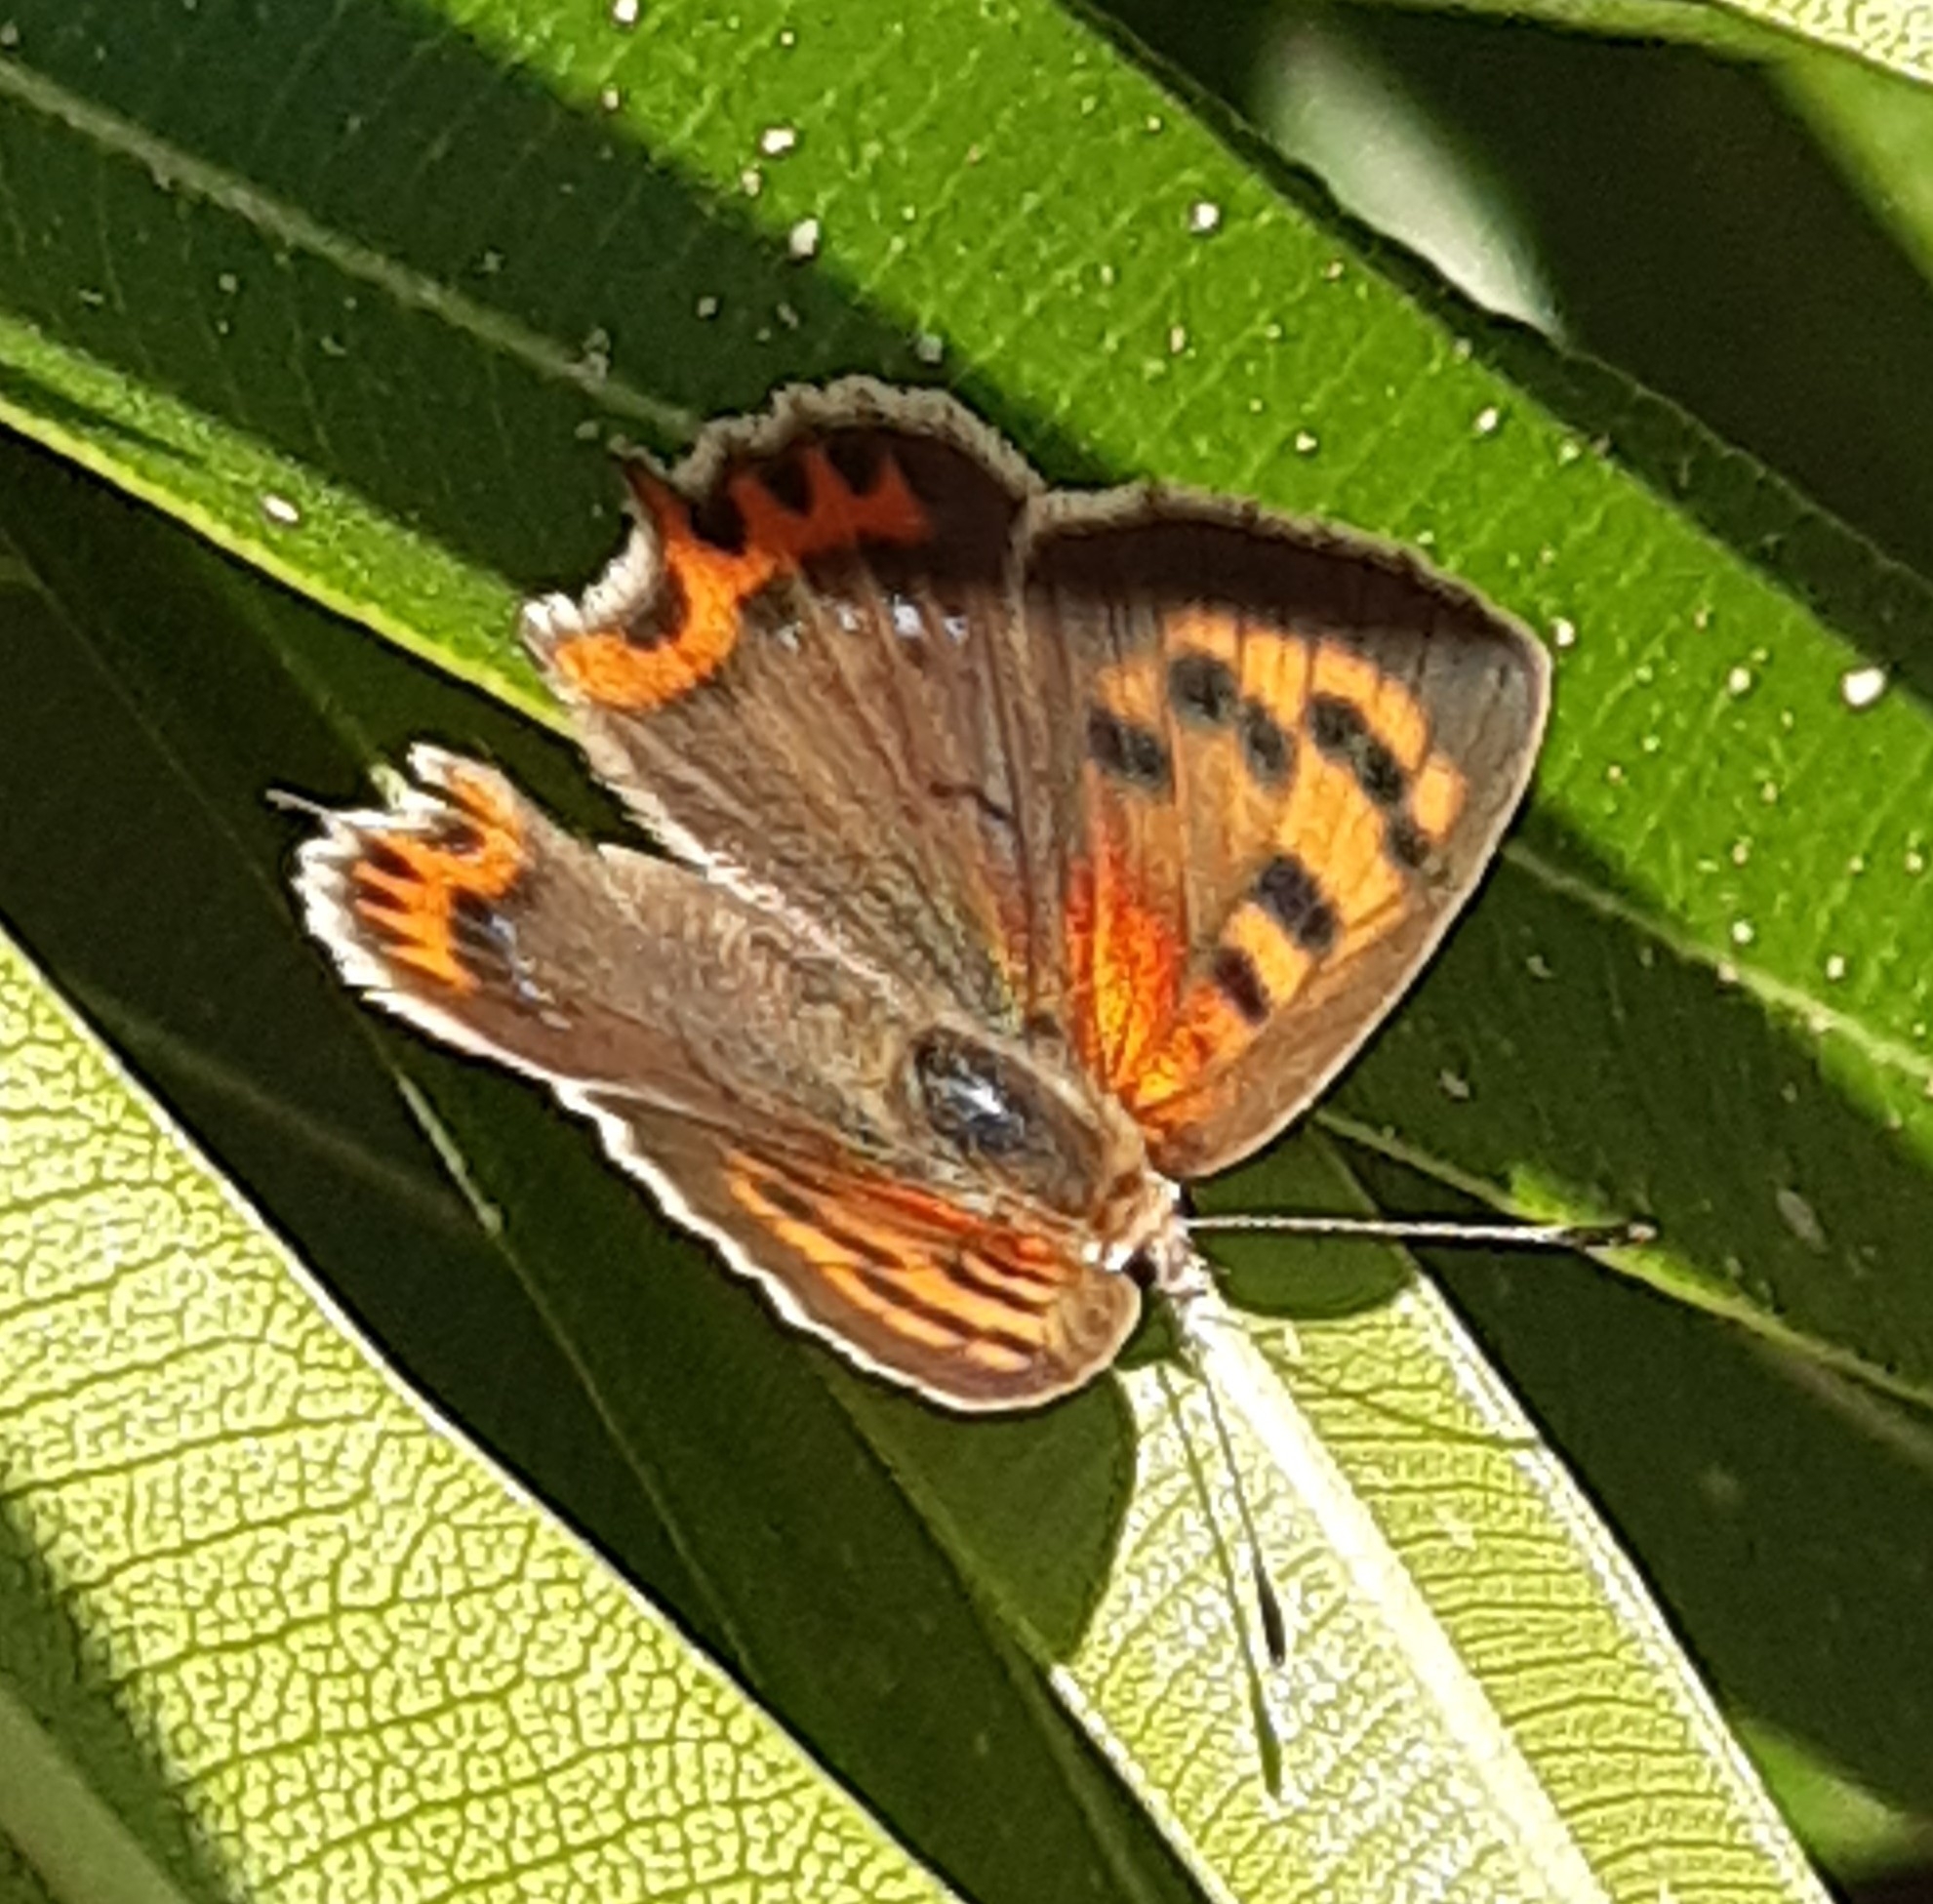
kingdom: Animalia
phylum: Arthropoda
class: Insecta
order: Lepidoptera
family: Lycaenidae
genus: Lycaena
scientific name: Lycaena phlaeas
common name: Small copper
